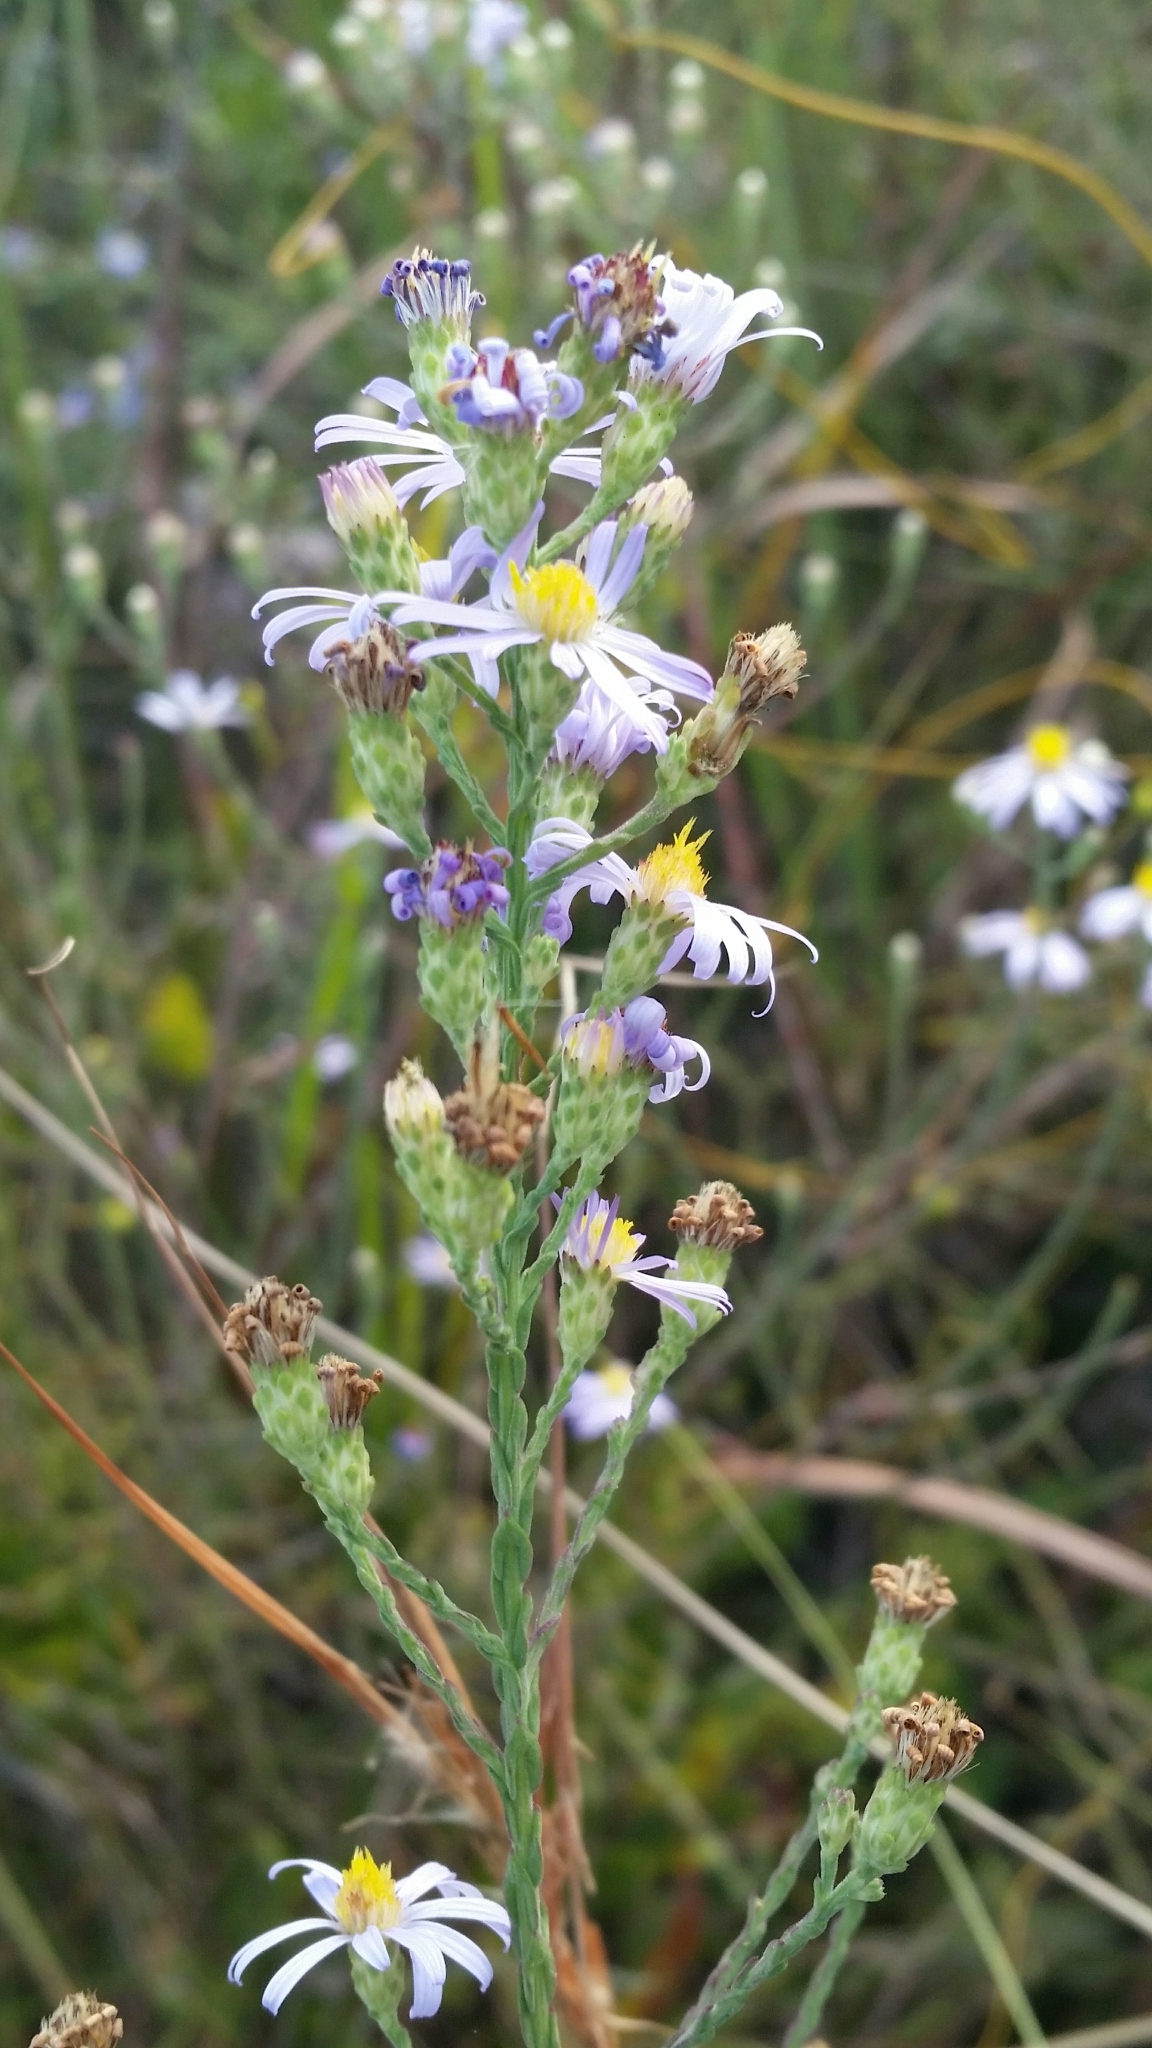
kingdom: Plantae
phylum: Tracheophyta
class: Magnoliopsida
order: Asterales
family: Asteraceae
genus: Symphyotrichum
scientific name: Symphyotrichum adnatum
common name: Scale-leaf aster
